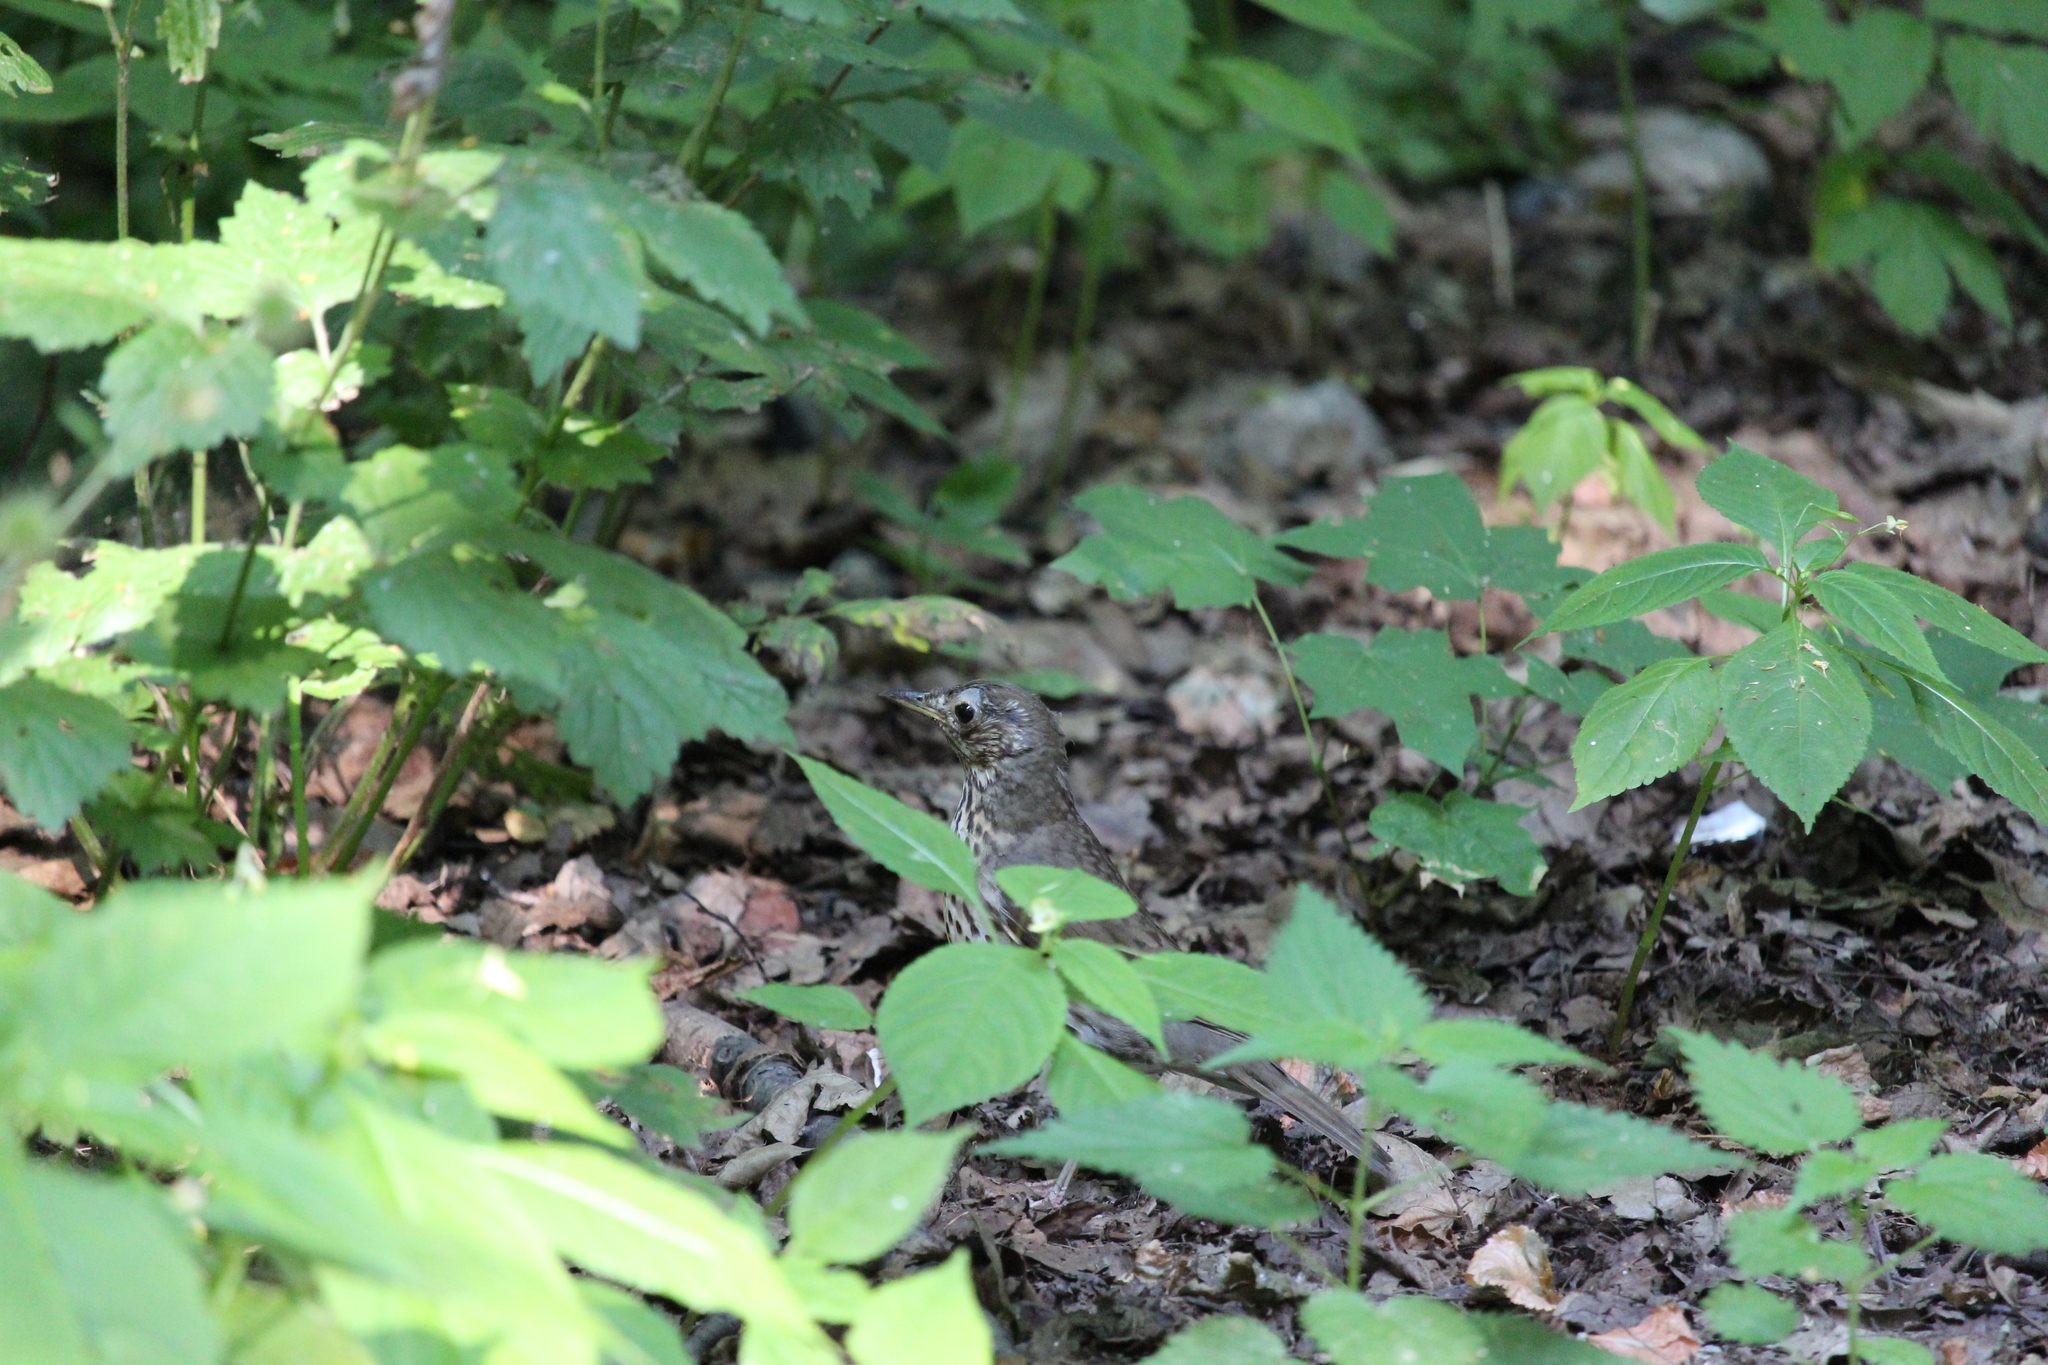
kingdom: Animalia
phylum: Chordata
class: Aves
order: Passeriformes
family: Turdidae
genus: Turdus
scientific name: Turdus philomelos
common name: Song thrush
